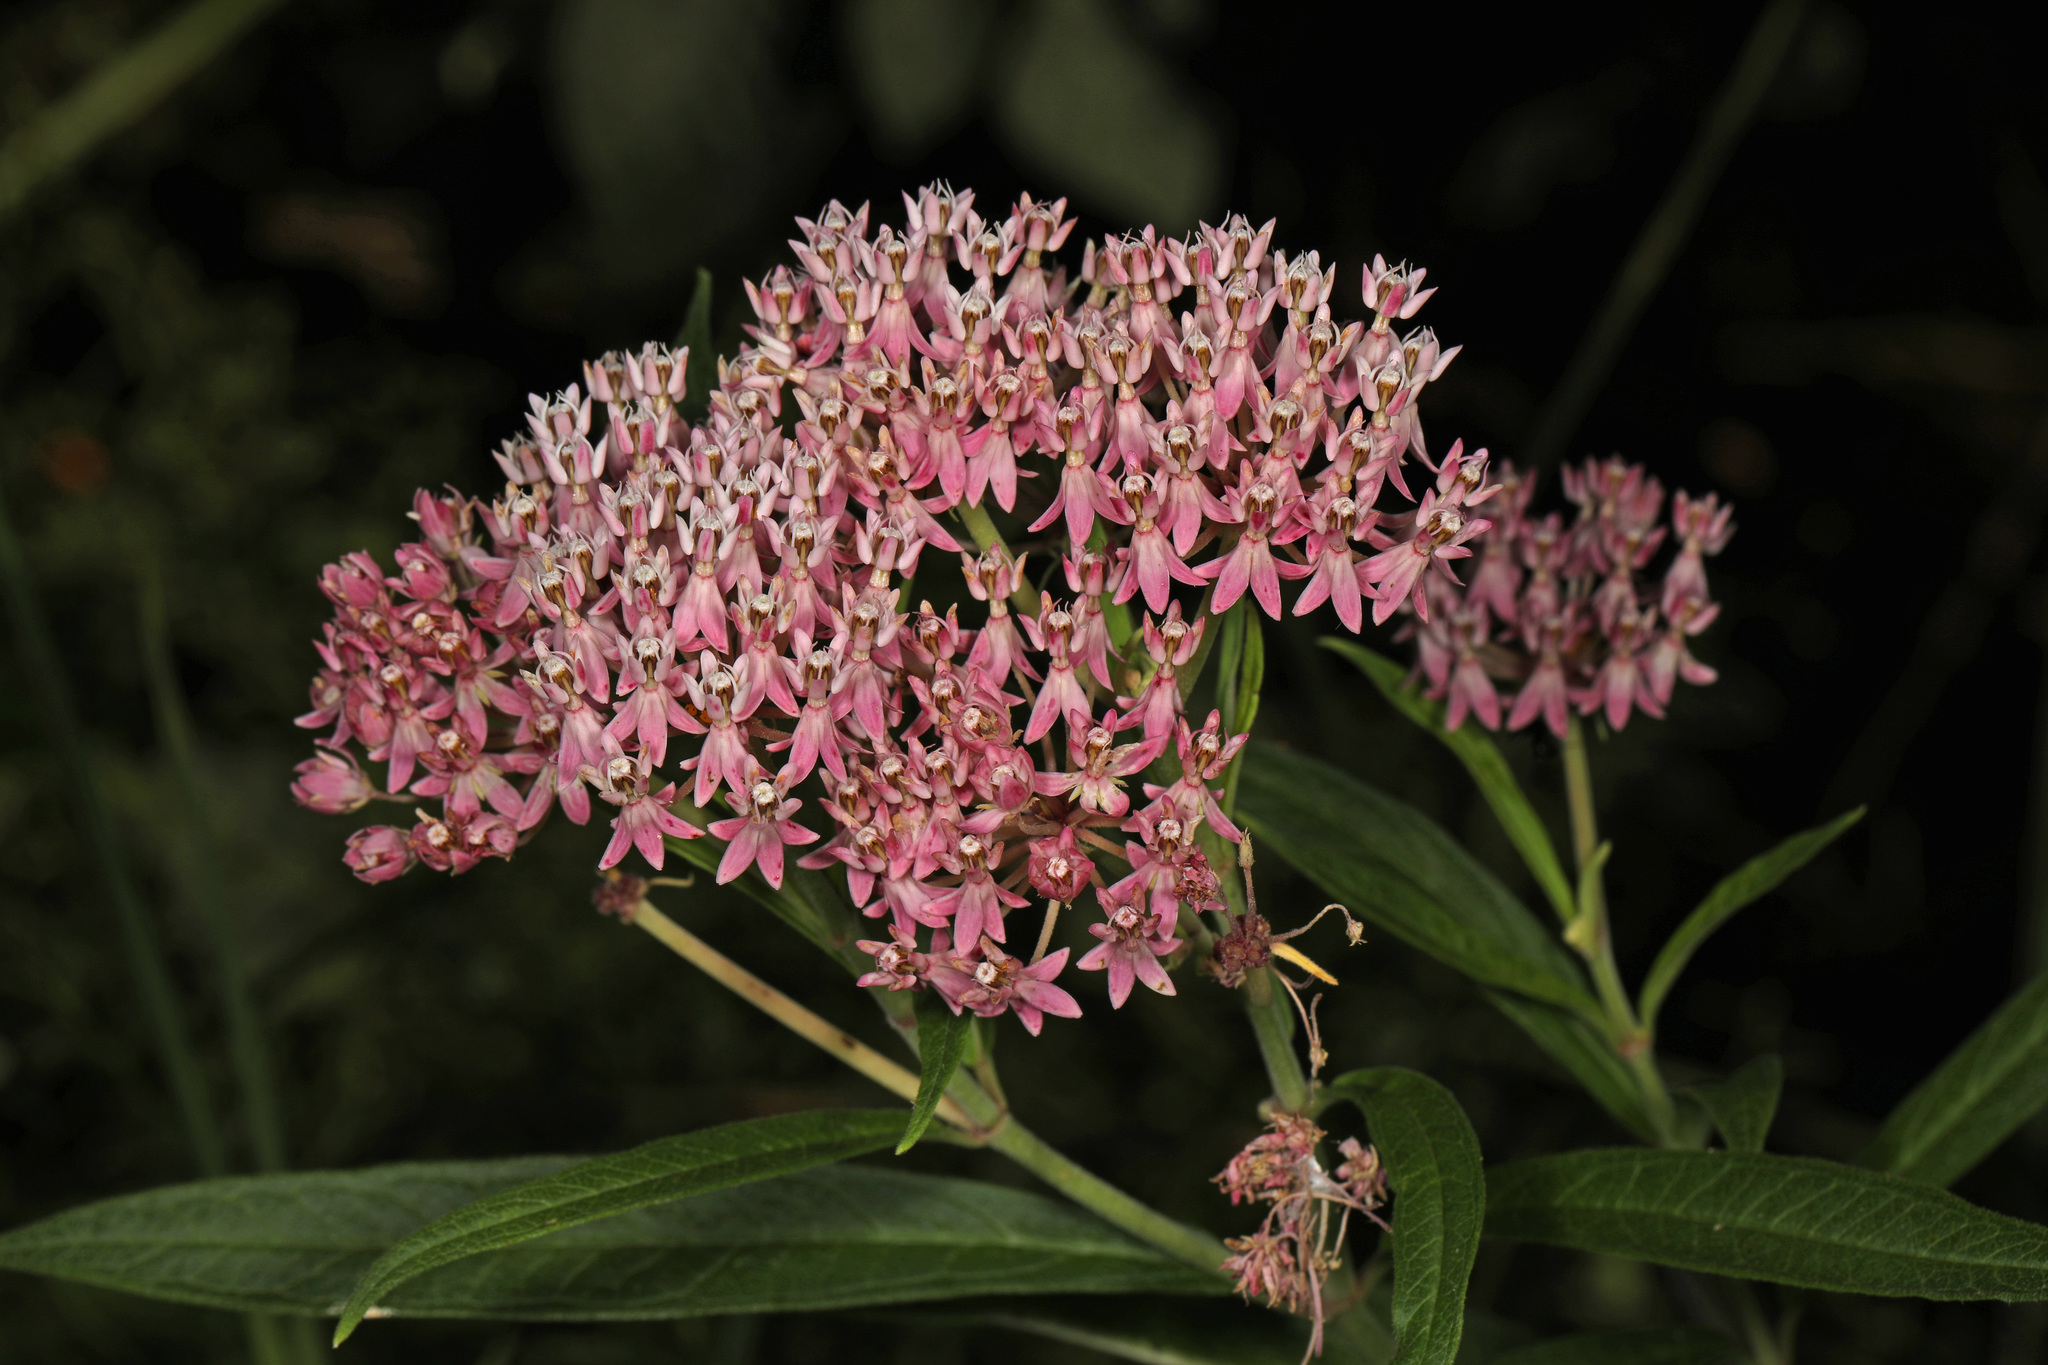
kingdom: Plantae
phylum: Tracheophyta
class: Magnoliopsida
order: Gentianales
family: Apocynaceae
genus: Asclepias
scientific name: Asclepias incarnata
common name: Swamp milkweed
